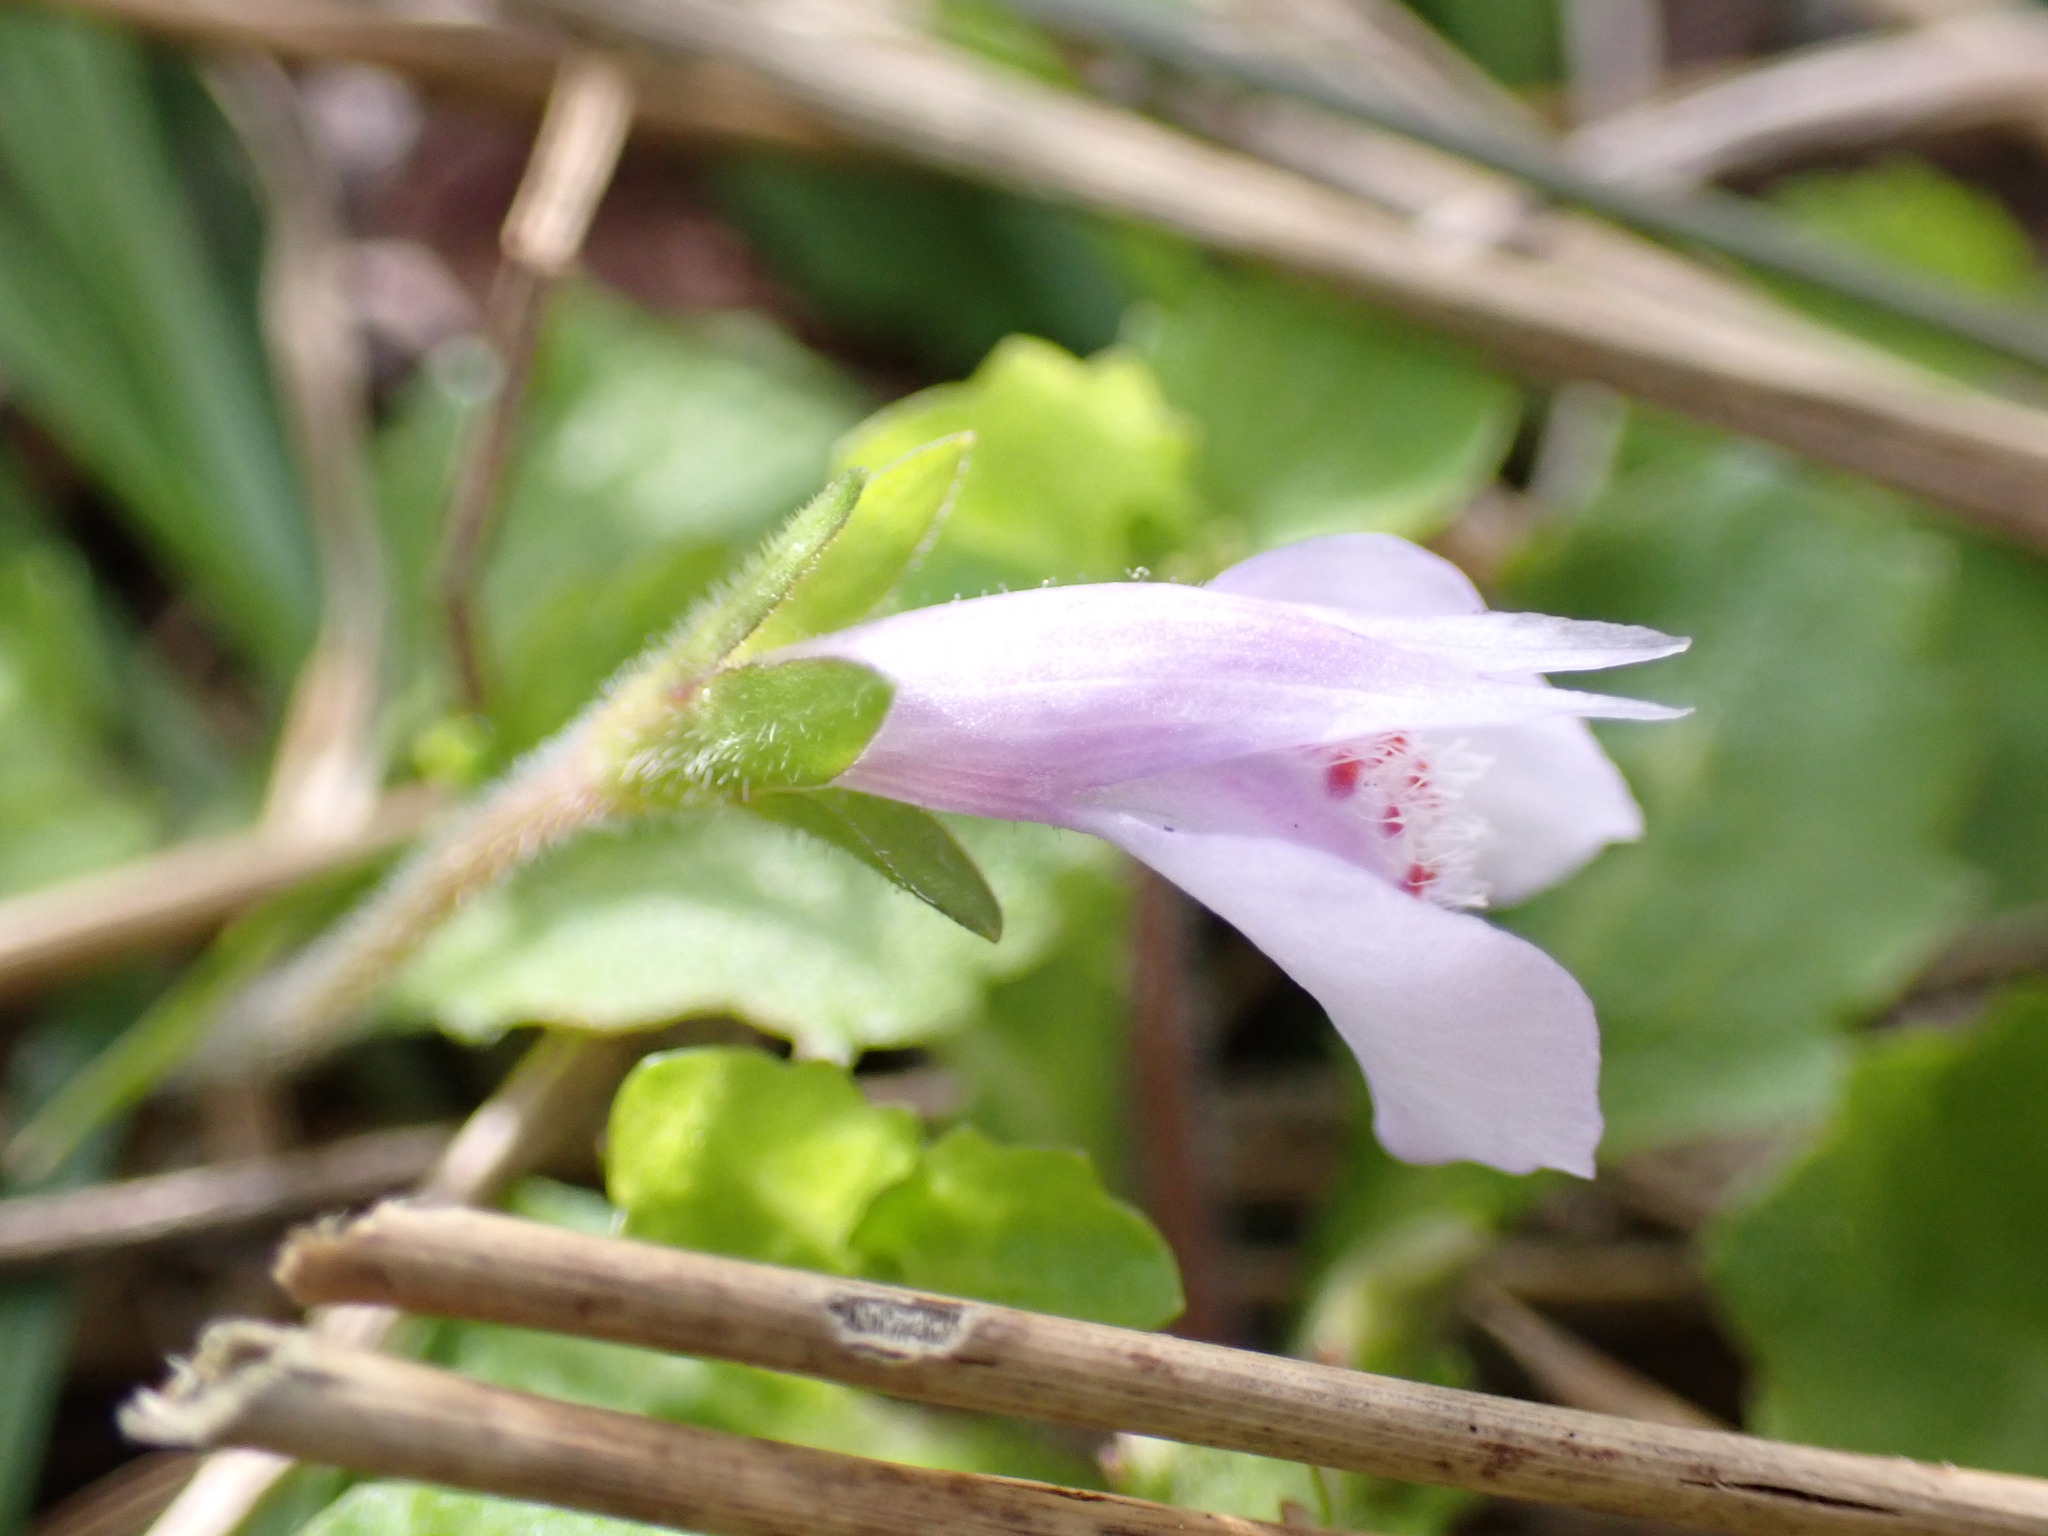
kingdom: Plantae
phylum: Tracheophyta
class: Magnoliopsida
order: Lamiales
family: Mazaceae
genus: Mazus
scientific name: Mazus miquelii
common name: Miquel's mazus
